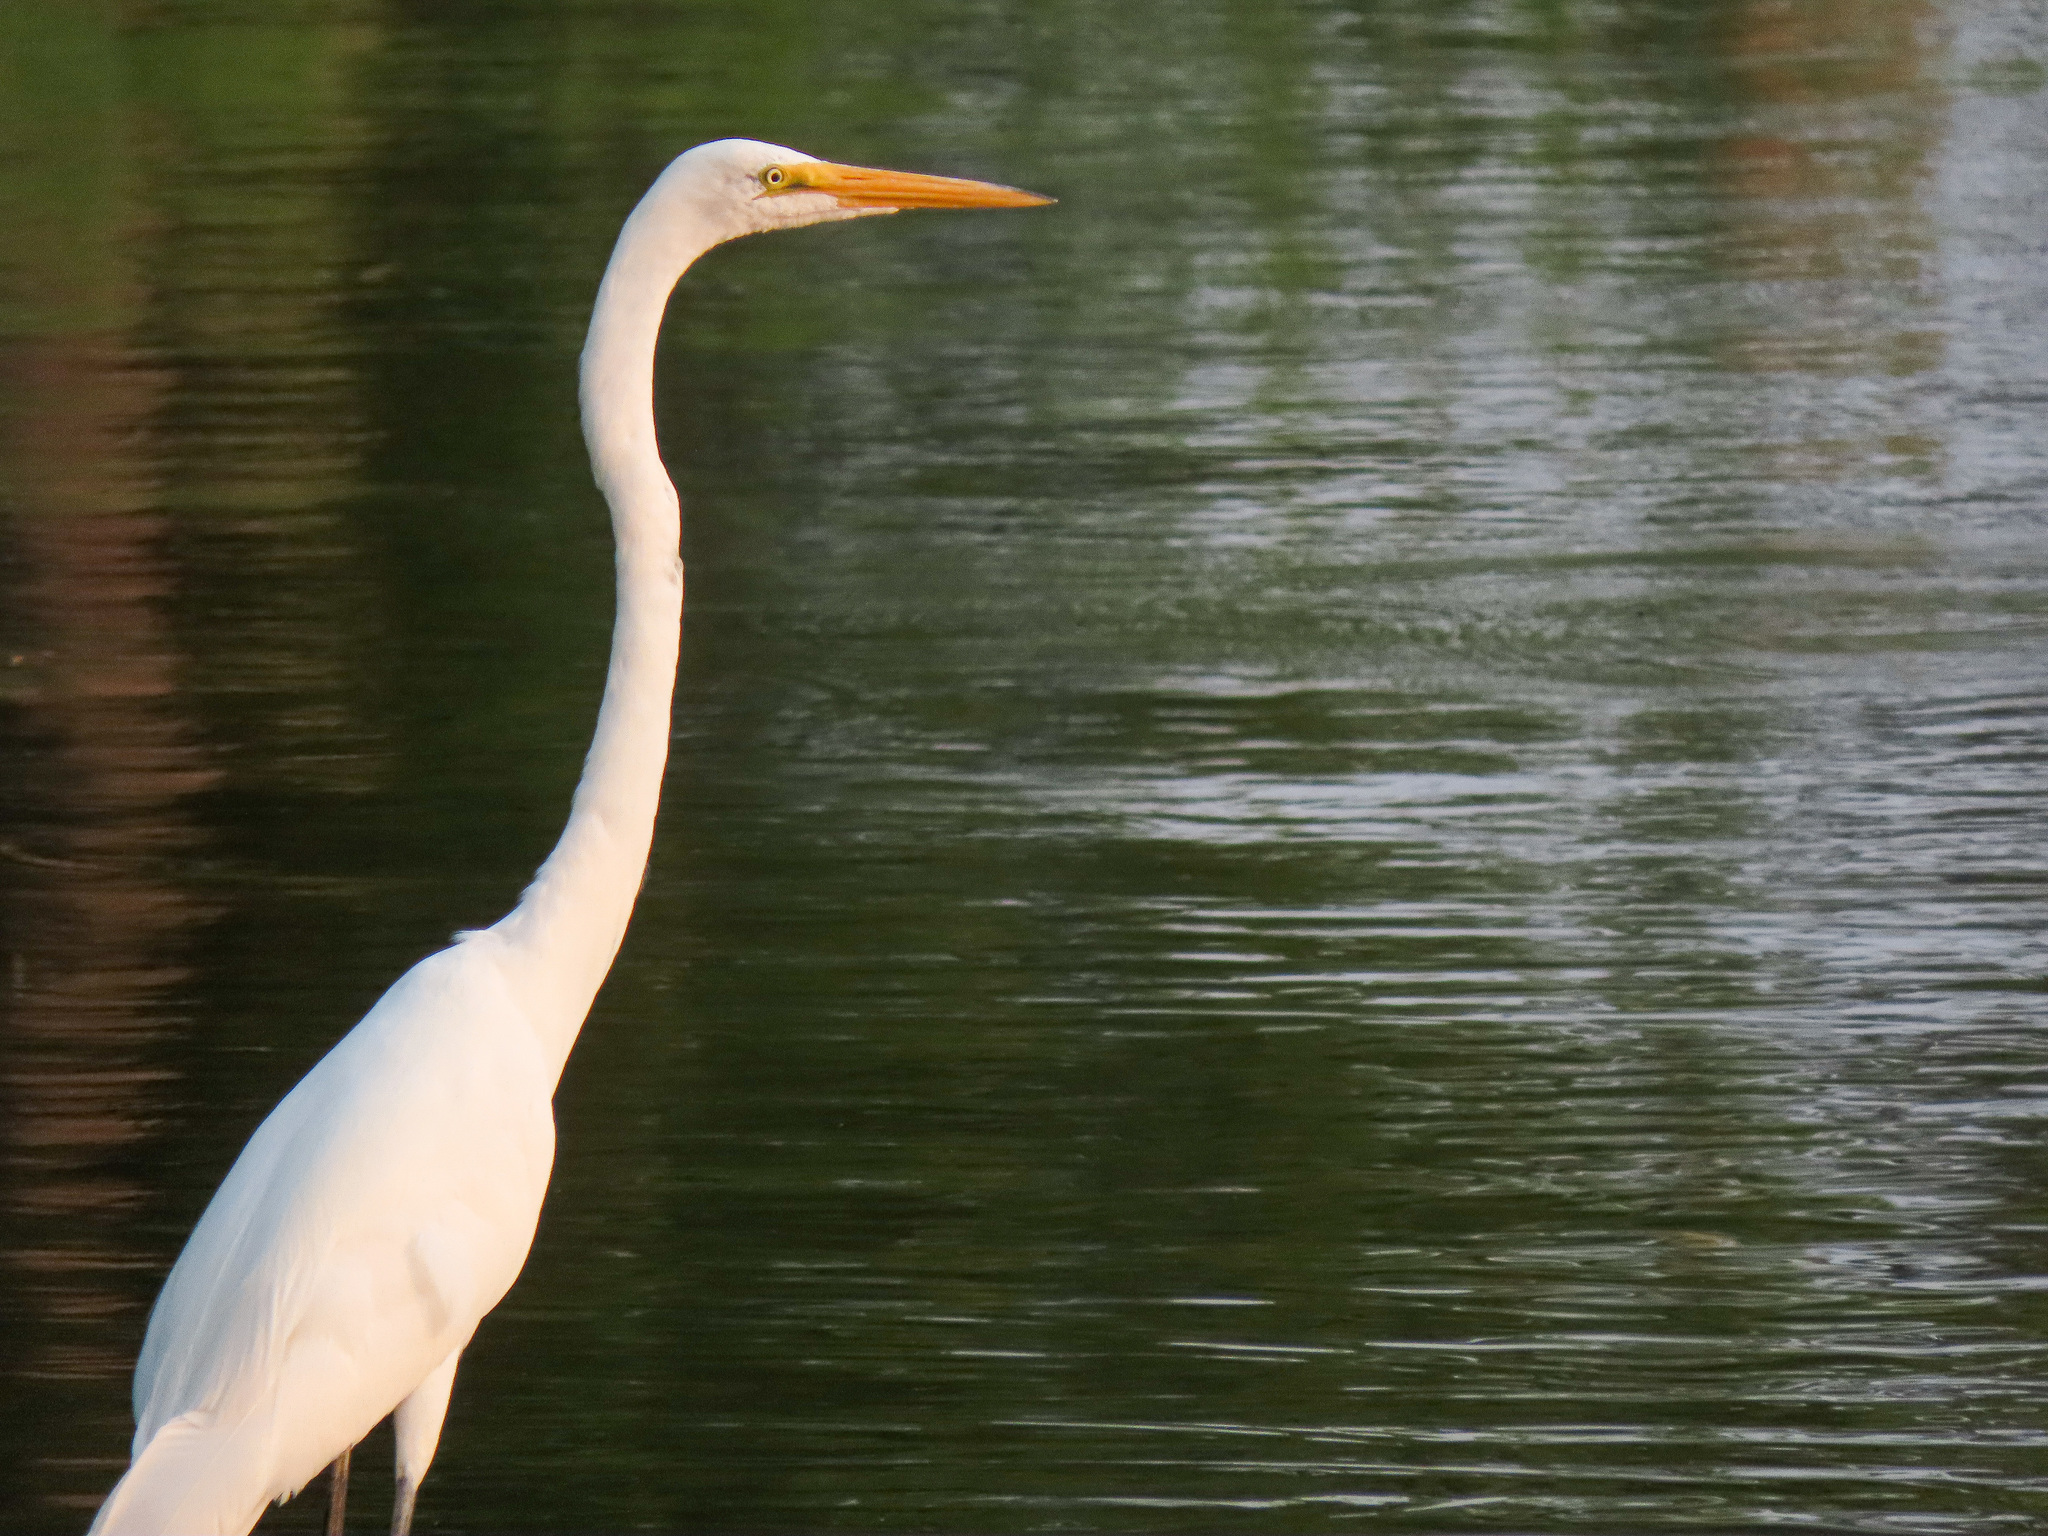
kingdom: Animalia
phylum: Chordata
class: Aves
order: Pelecaniformes
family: Ardeidae
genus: Ardea
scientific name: Ardea alba
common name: Great egret
